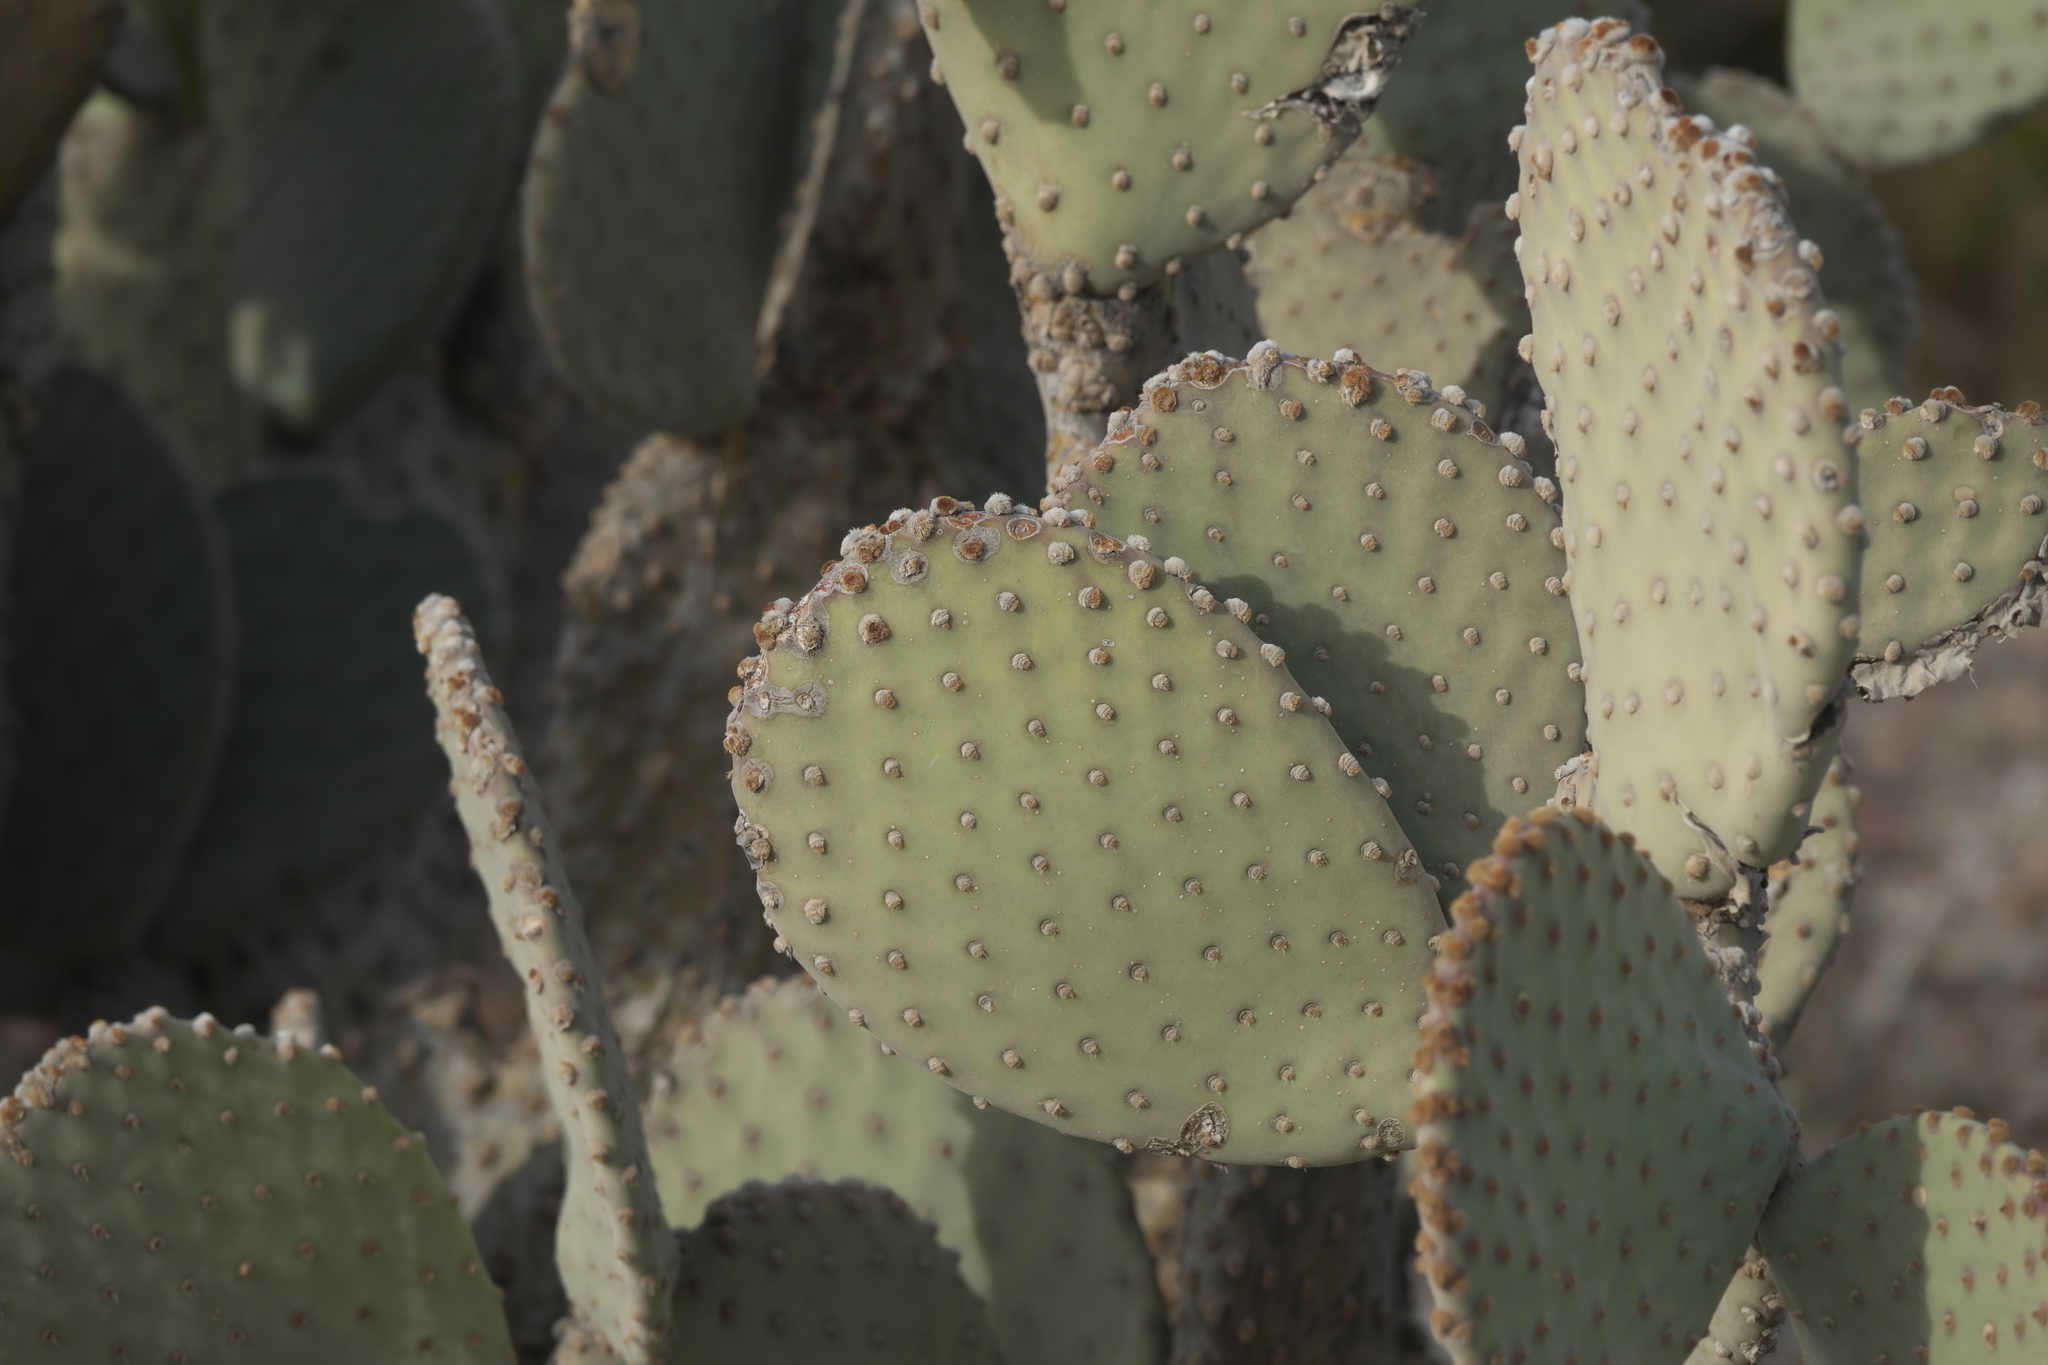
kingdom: Plantae
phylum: Tracheophyta
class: Magnoliopsida
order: Caryophyllales
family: Cactaceae
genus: Opuntia
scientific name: Opuntia rufida
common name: Blind pricklypear
